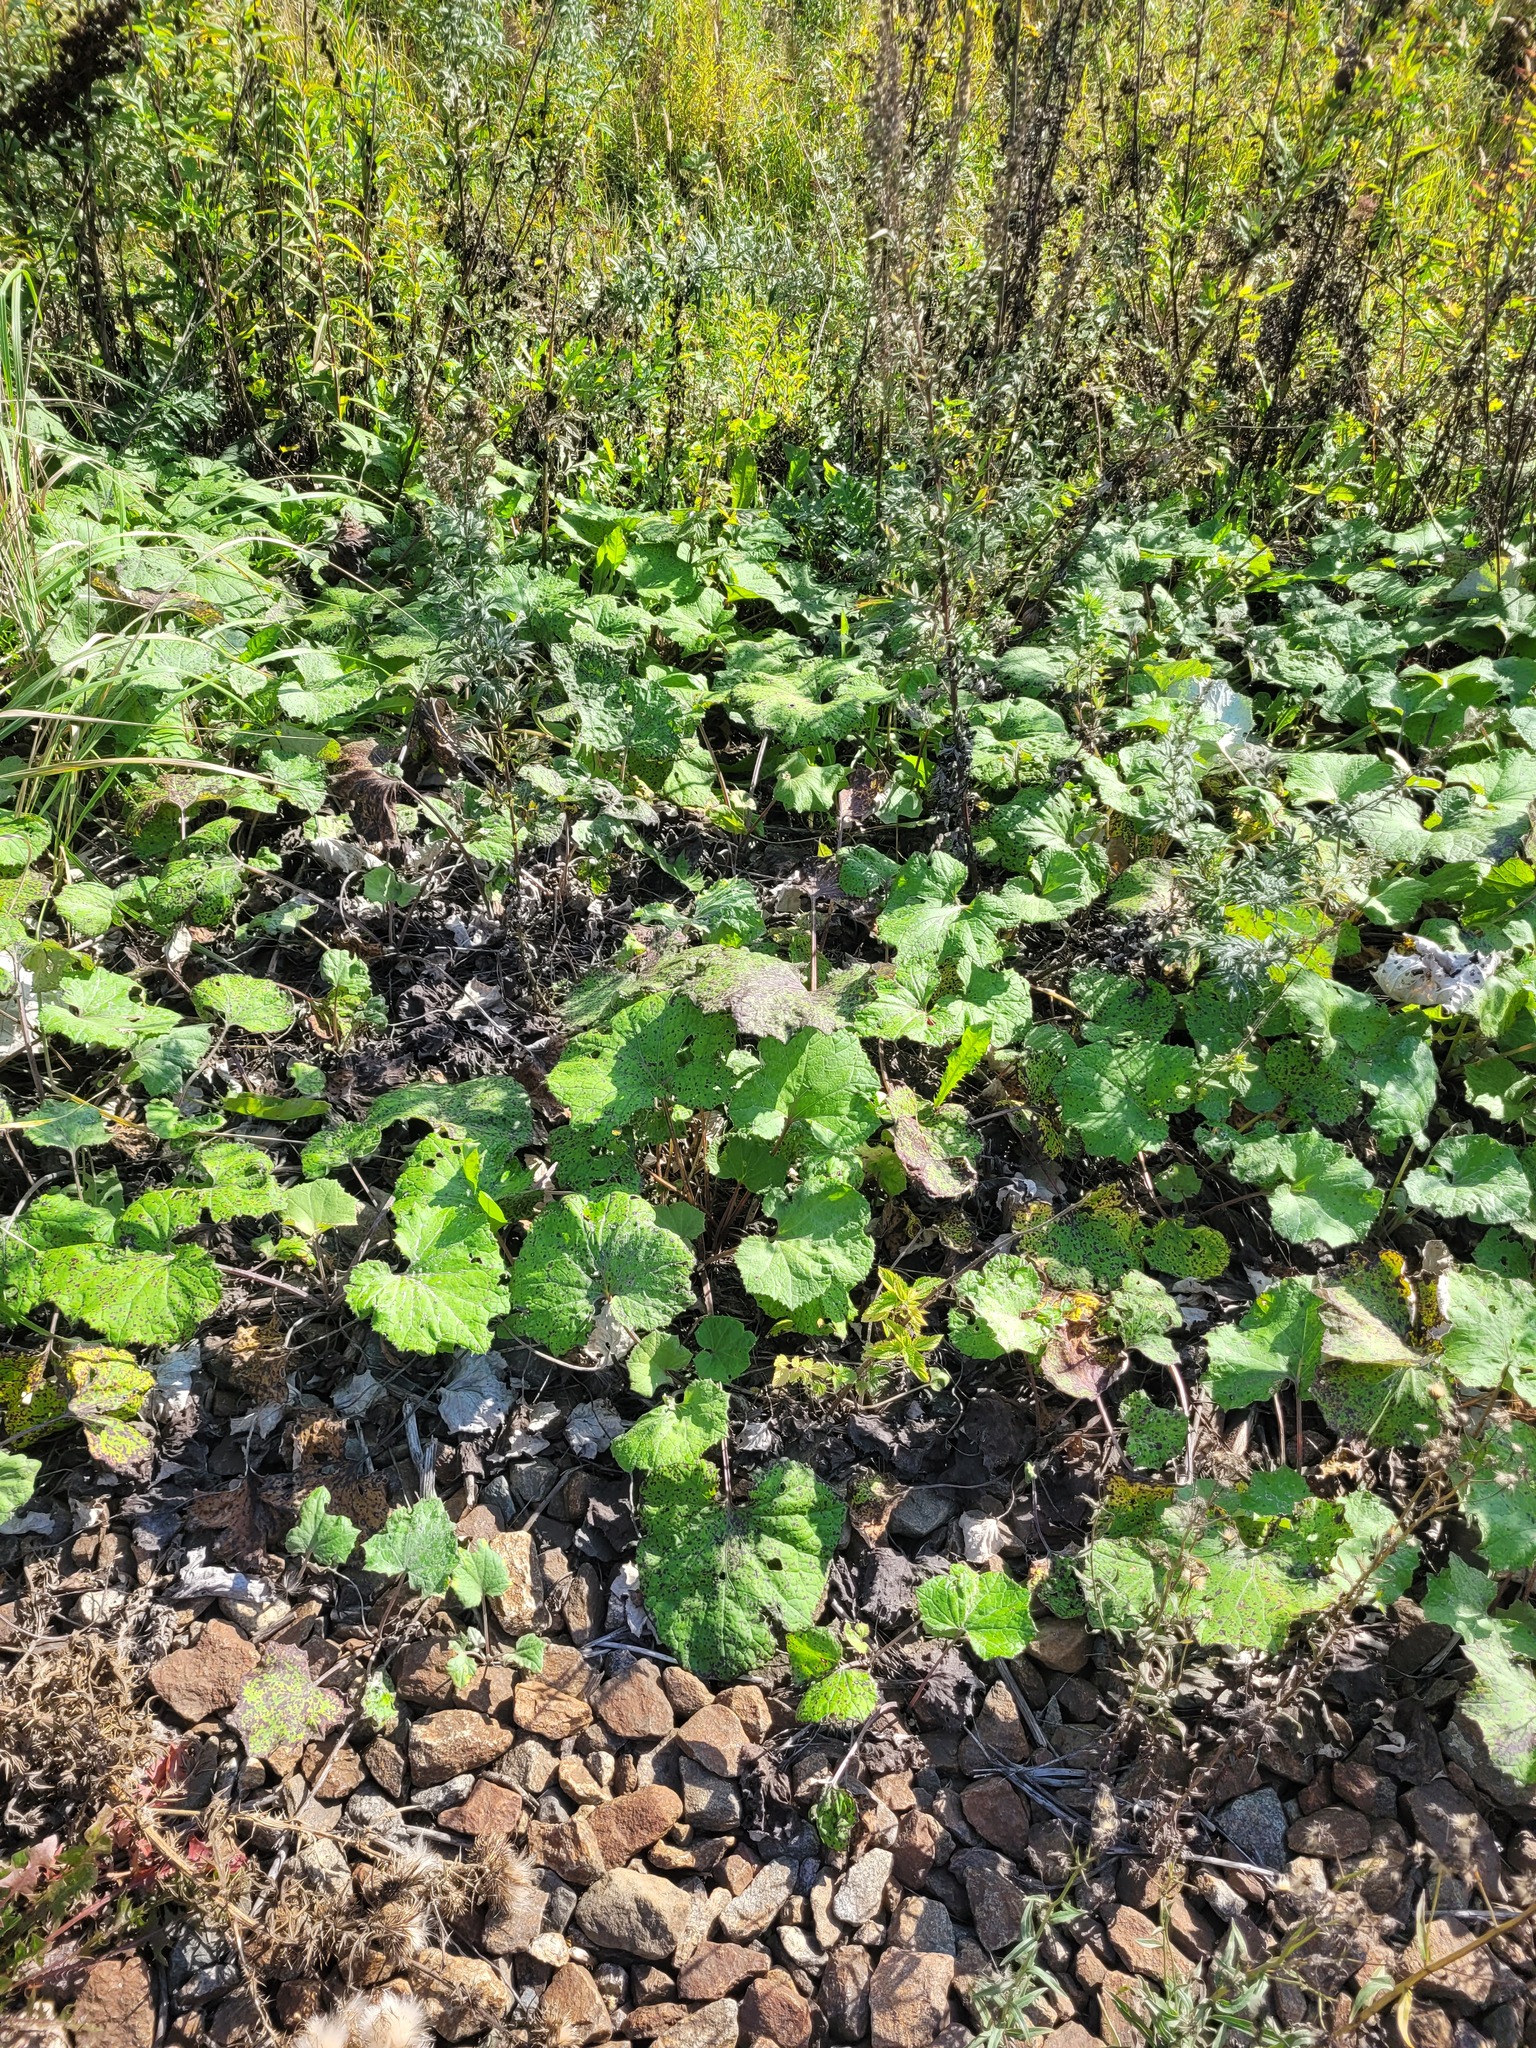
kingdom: Plantae
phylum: Tracheophyta
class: Magnoliopsida
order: Asterales
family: Asteraceae
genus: Tussilago
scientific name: Tussilago farfara
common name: Coltsfoot
